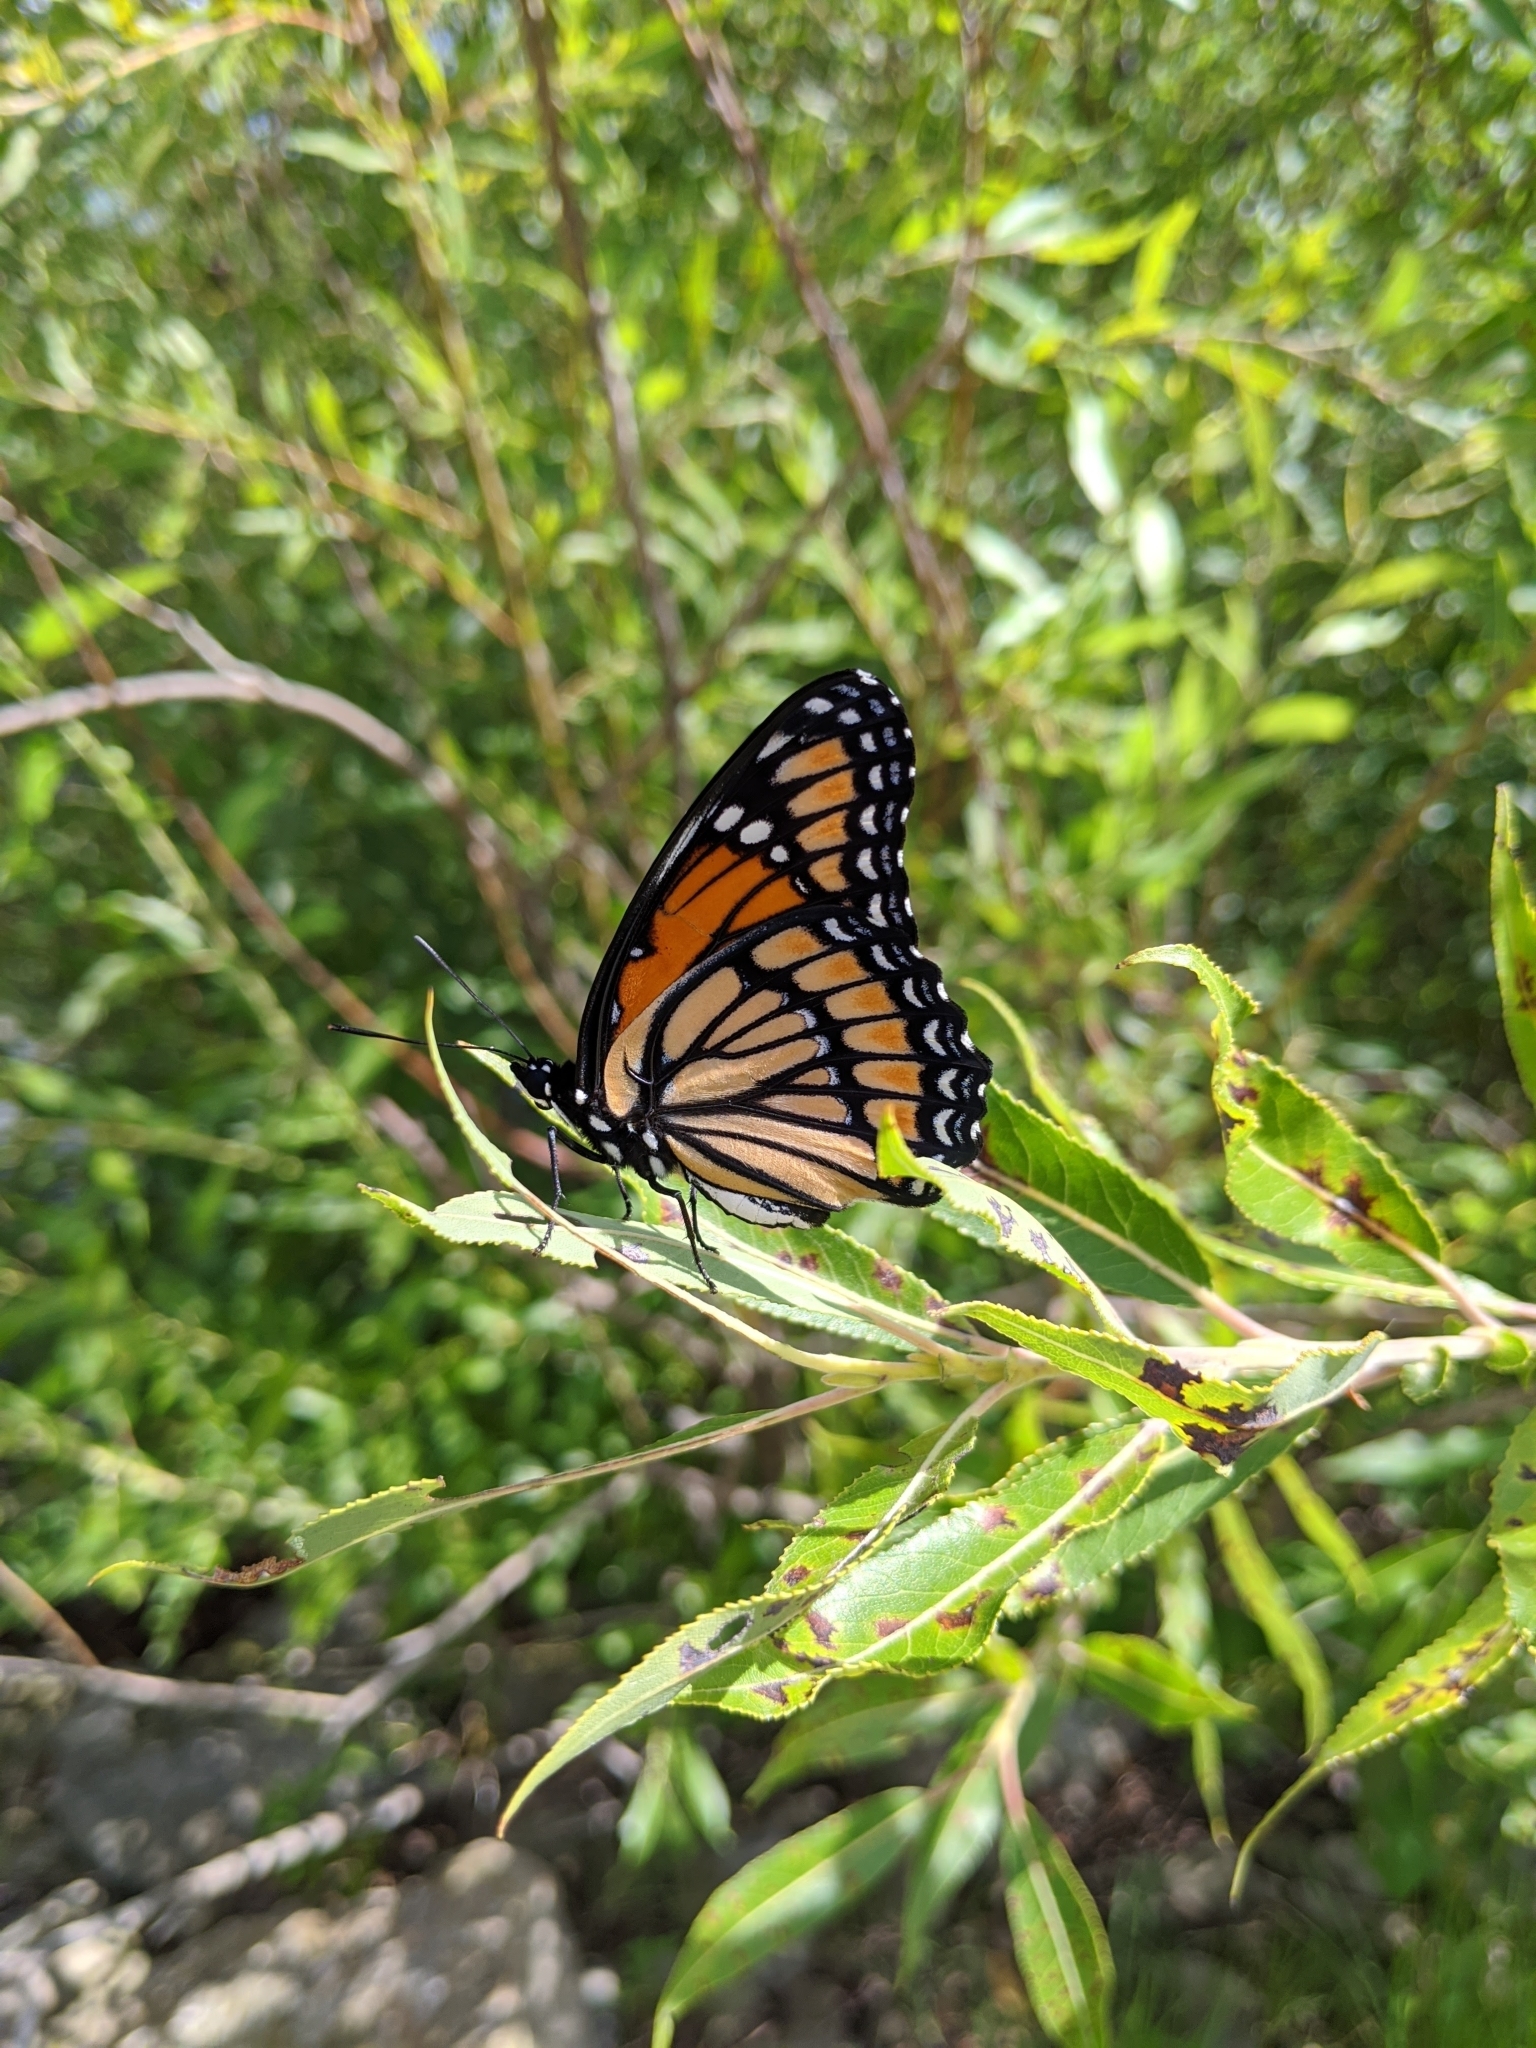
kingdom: Animalia
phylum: Arthropoda
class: Insecta
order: Lepidoptera
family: Nymphalidae
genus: Limenitis
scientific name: Limenitis archippus
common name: Viceroy
